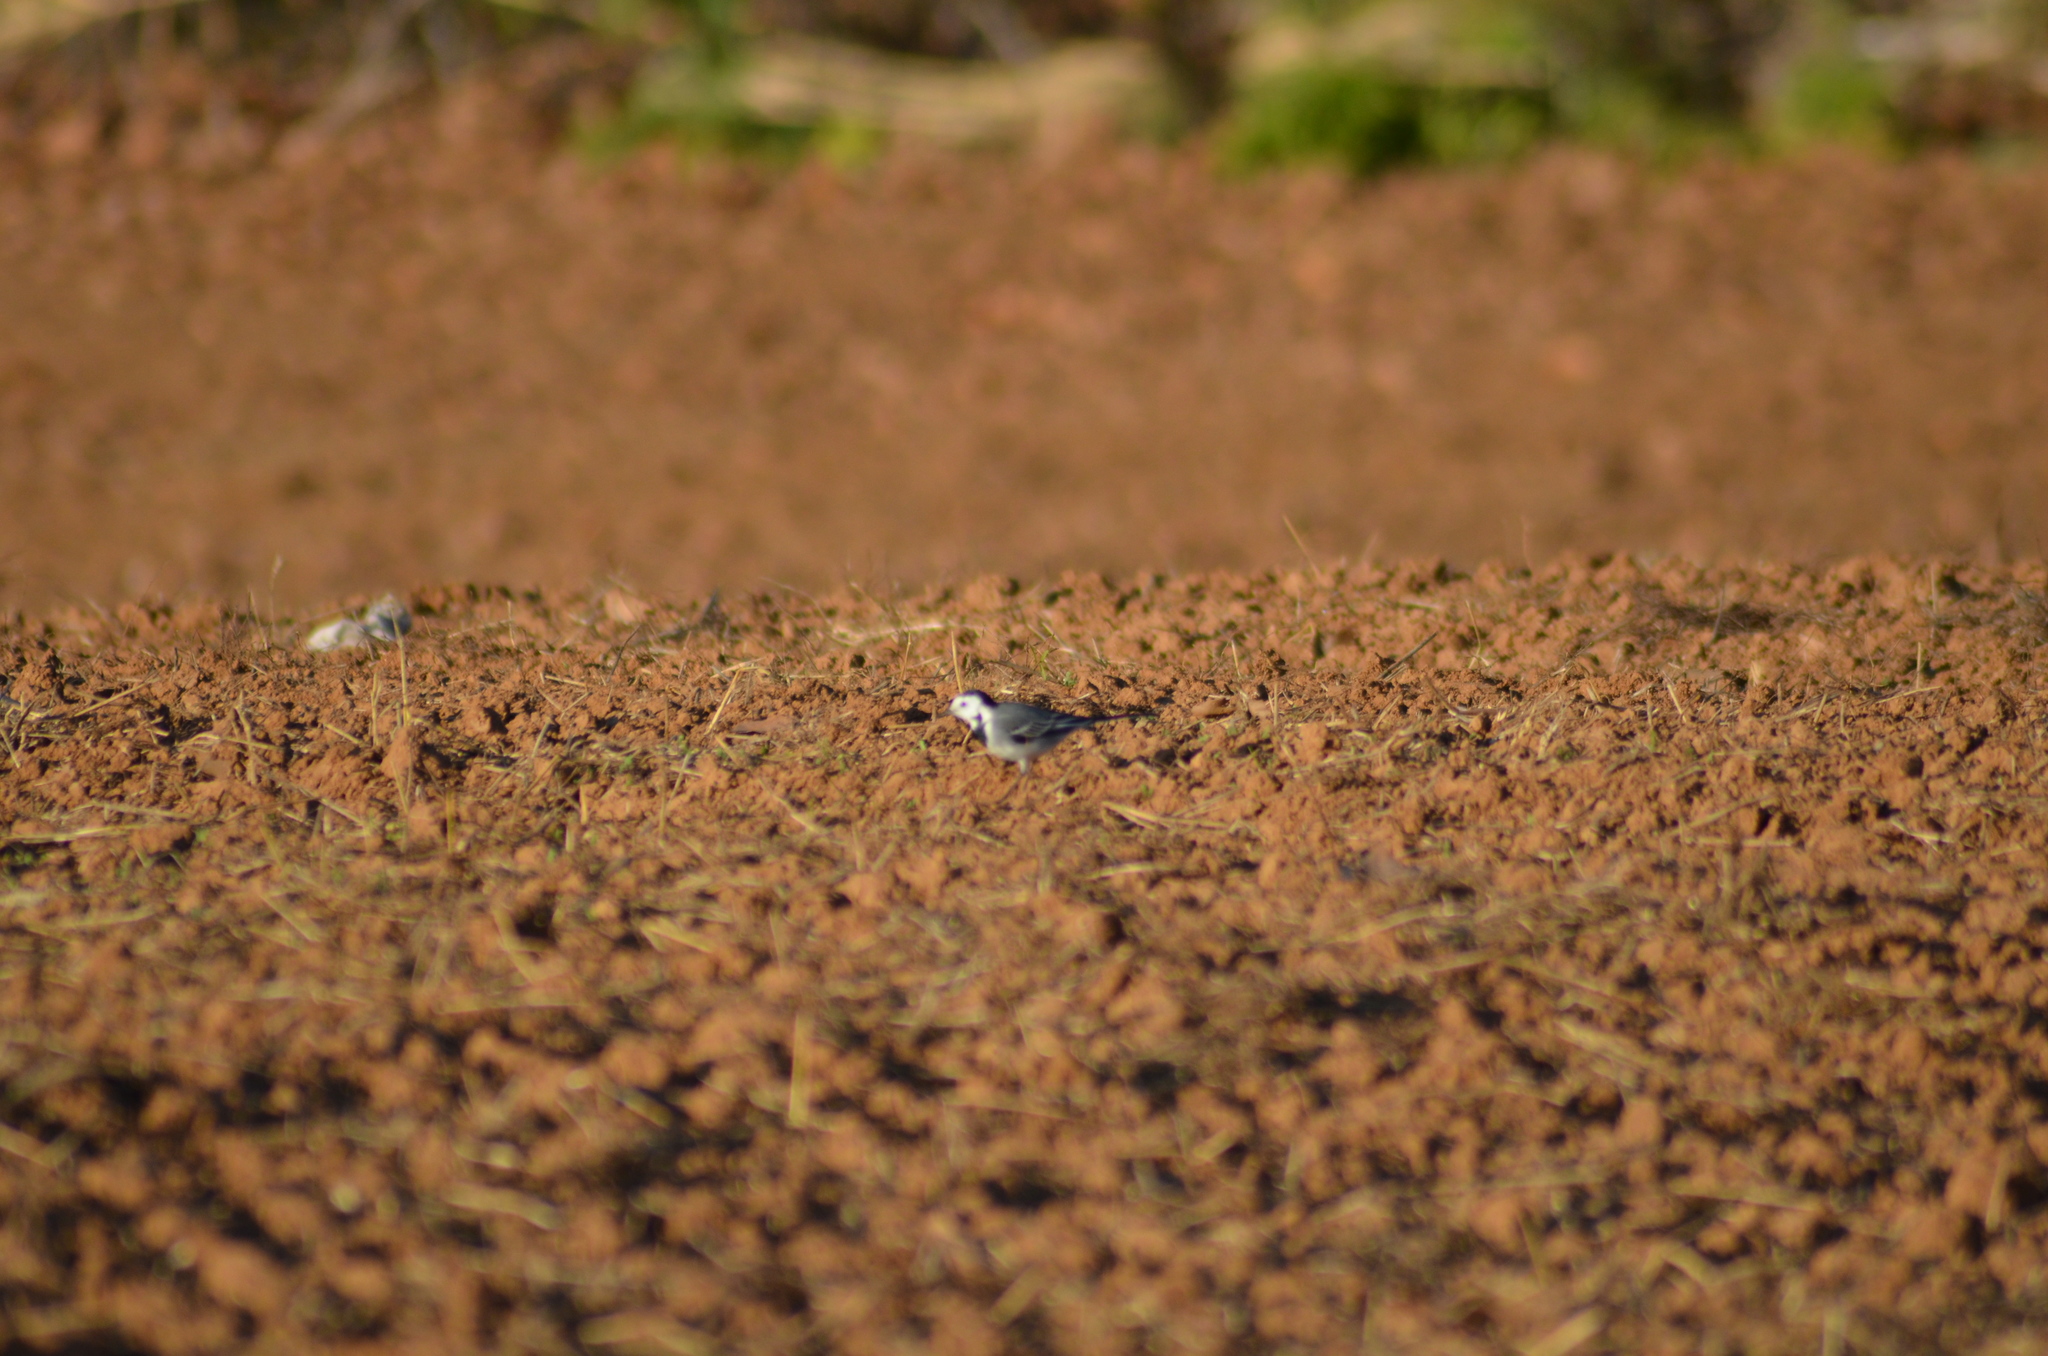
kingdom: Animalia
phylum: Chordata
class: Aves
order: Passeriformes
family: Motacillidae
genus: Motacilla
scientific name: Motacilla alba
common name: White wagtail
